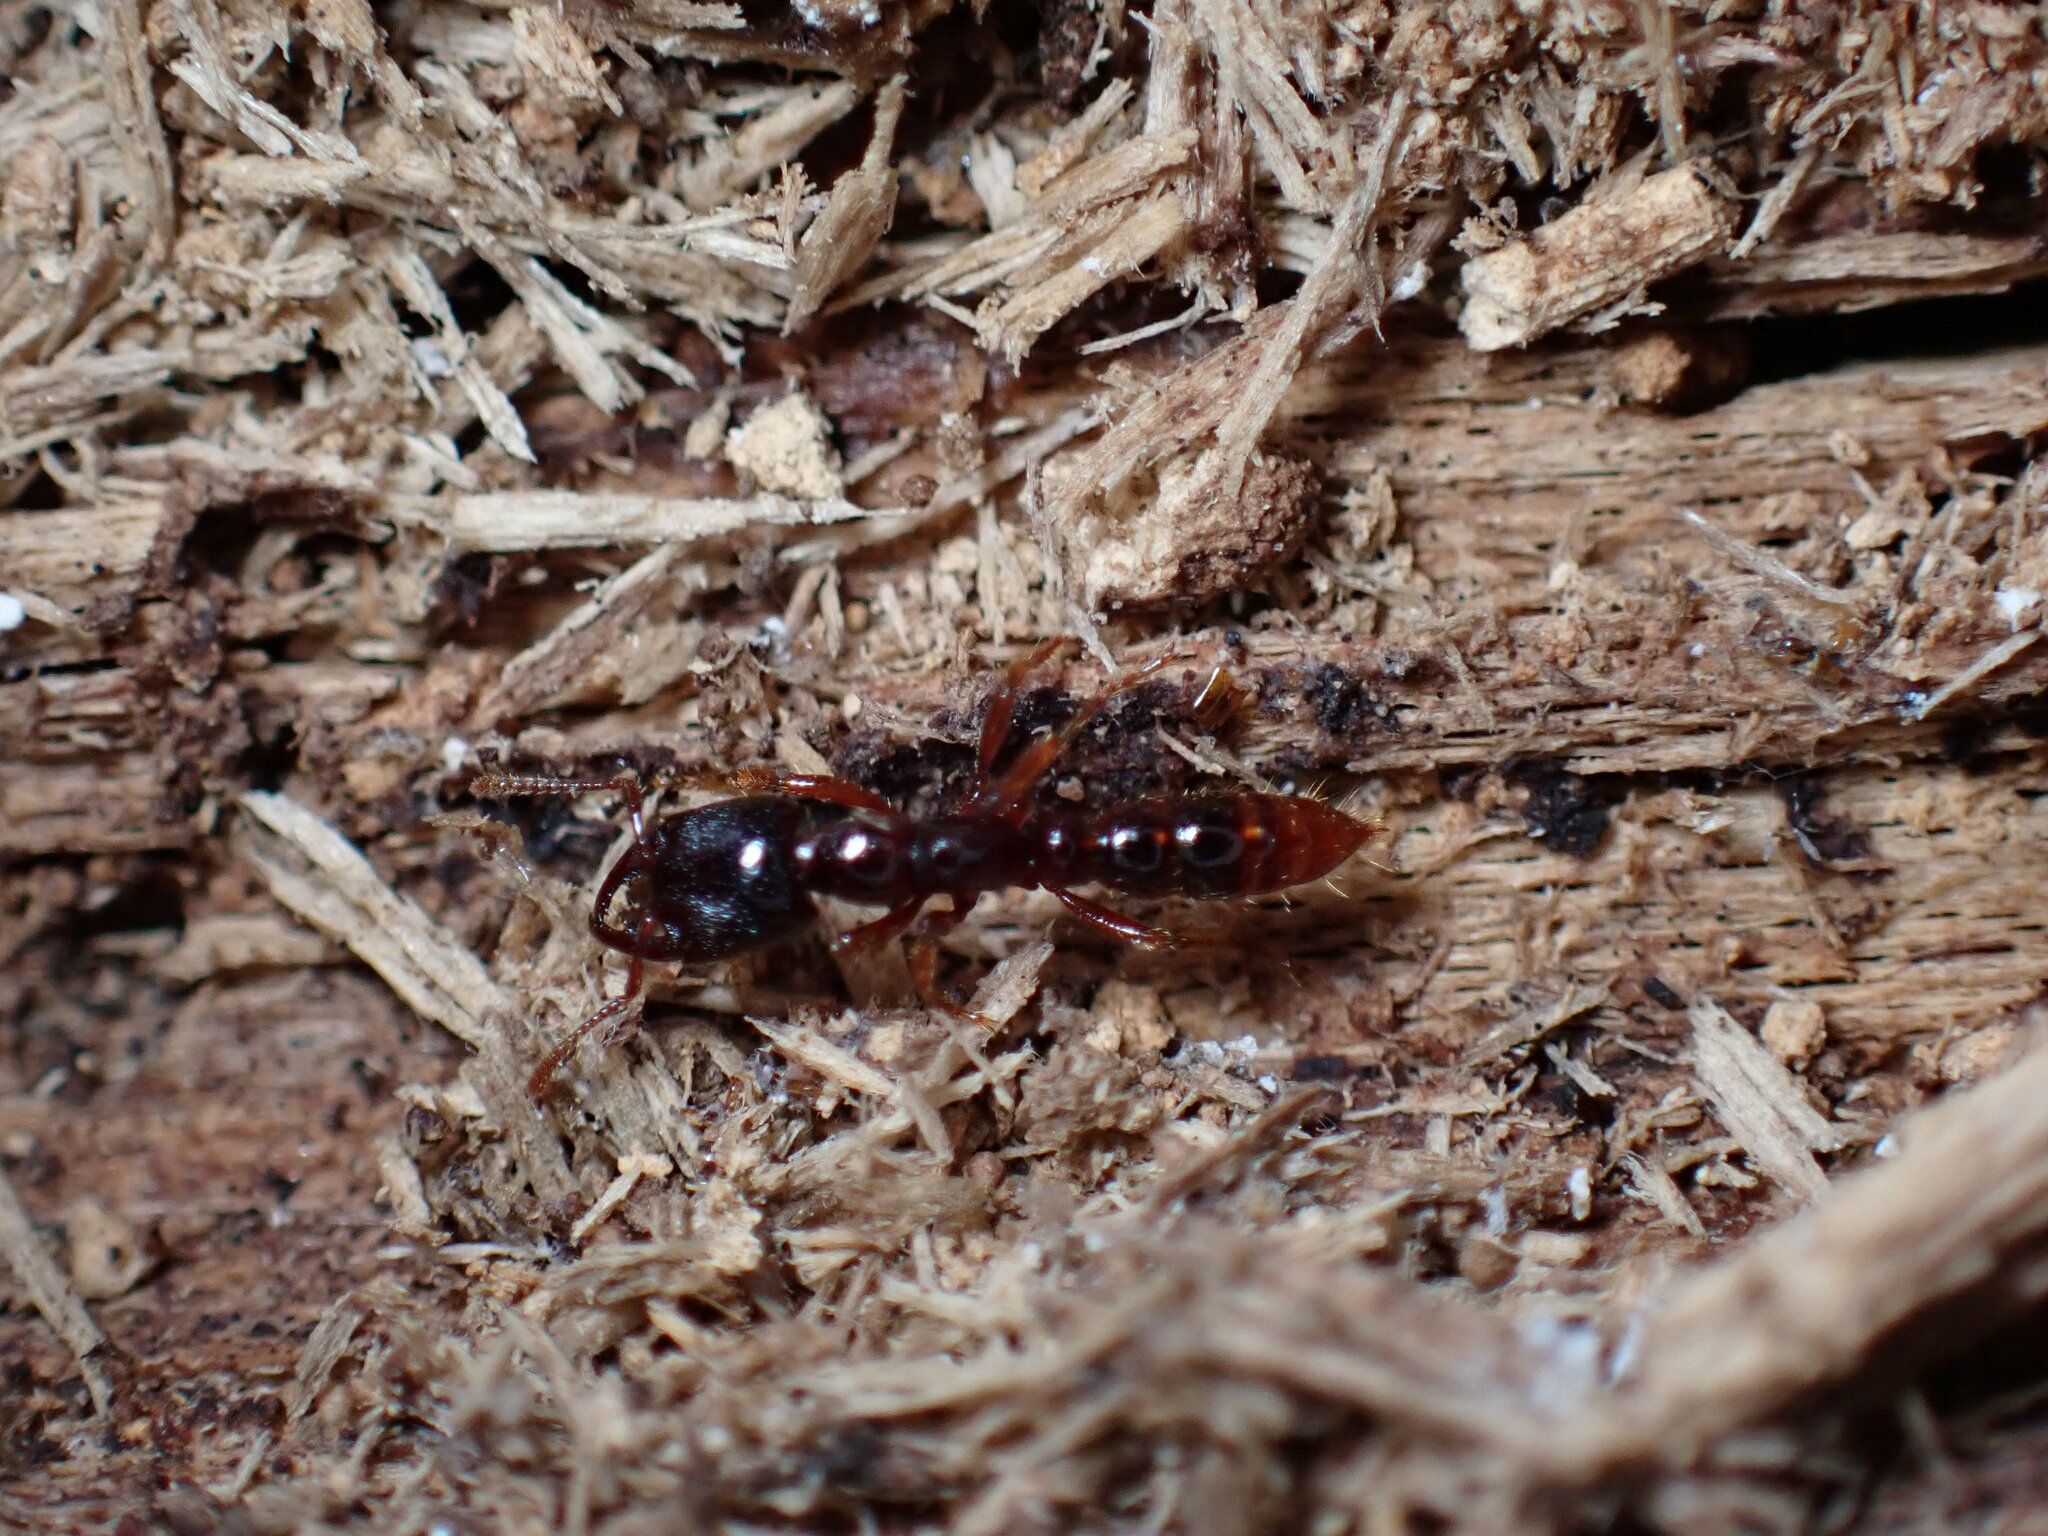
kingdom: Animalia
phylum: Arthropoda
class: Insecta
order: Hymenoptera
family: Formicidae
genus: Amblyopone
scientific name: Amblyopone australis
